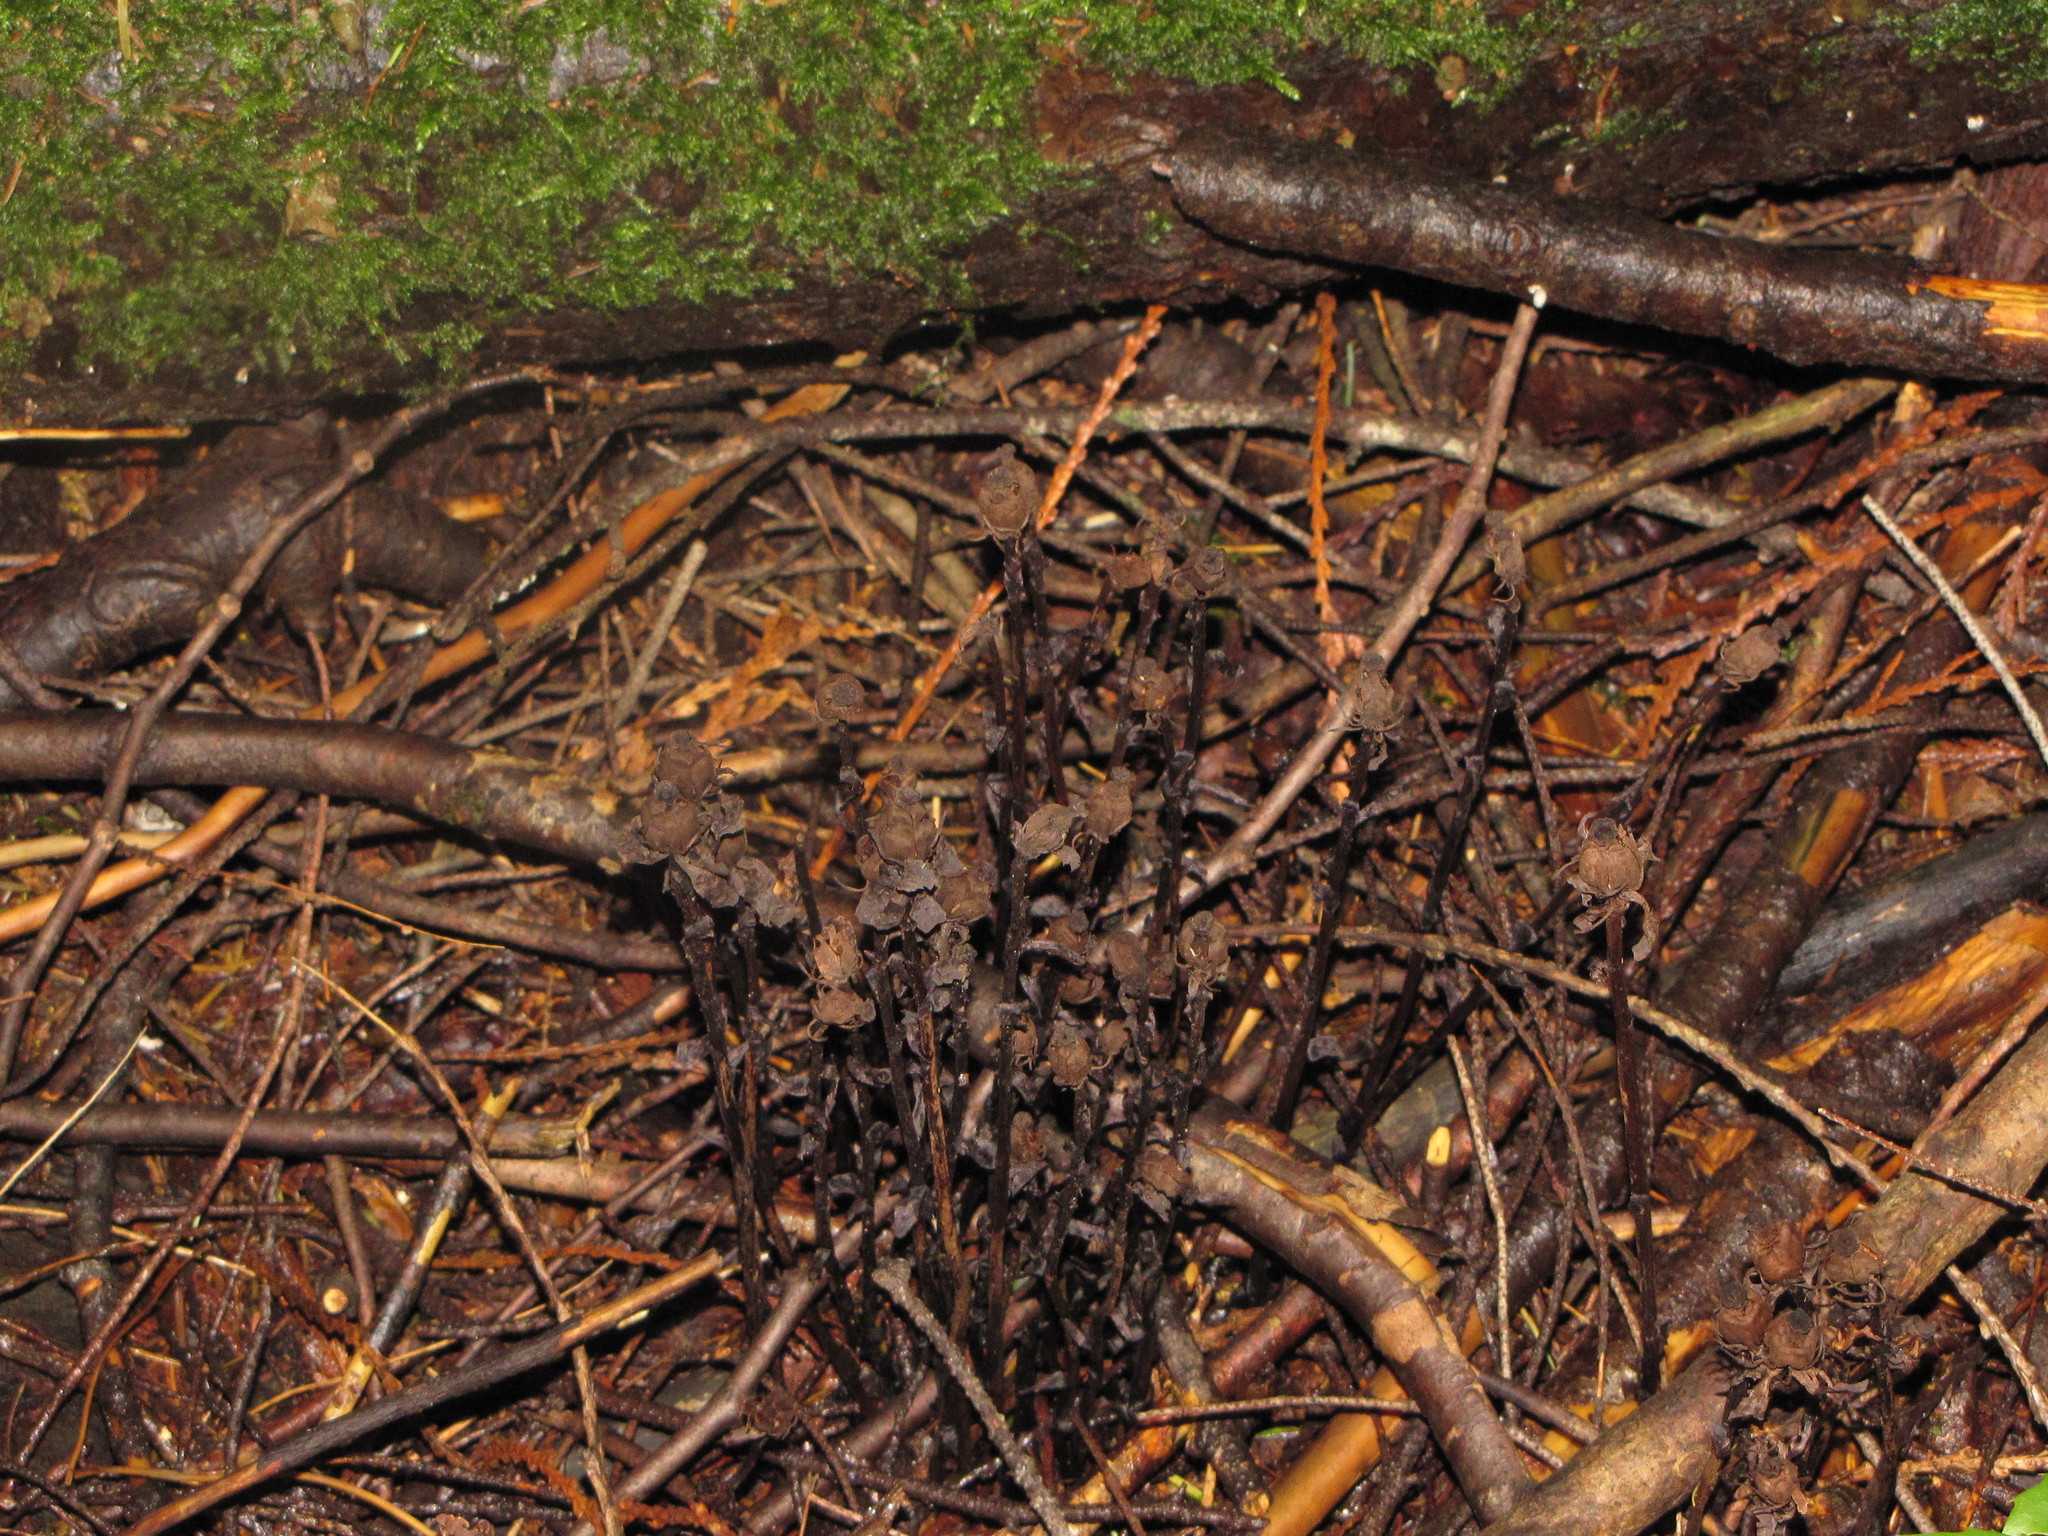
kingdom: Plantae
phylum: Tracheophyta
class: Magnoliopsida
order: Ericales
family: Ericaceae
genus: Monotropa
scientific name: Monotropa uniflora
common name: Convulsion root
